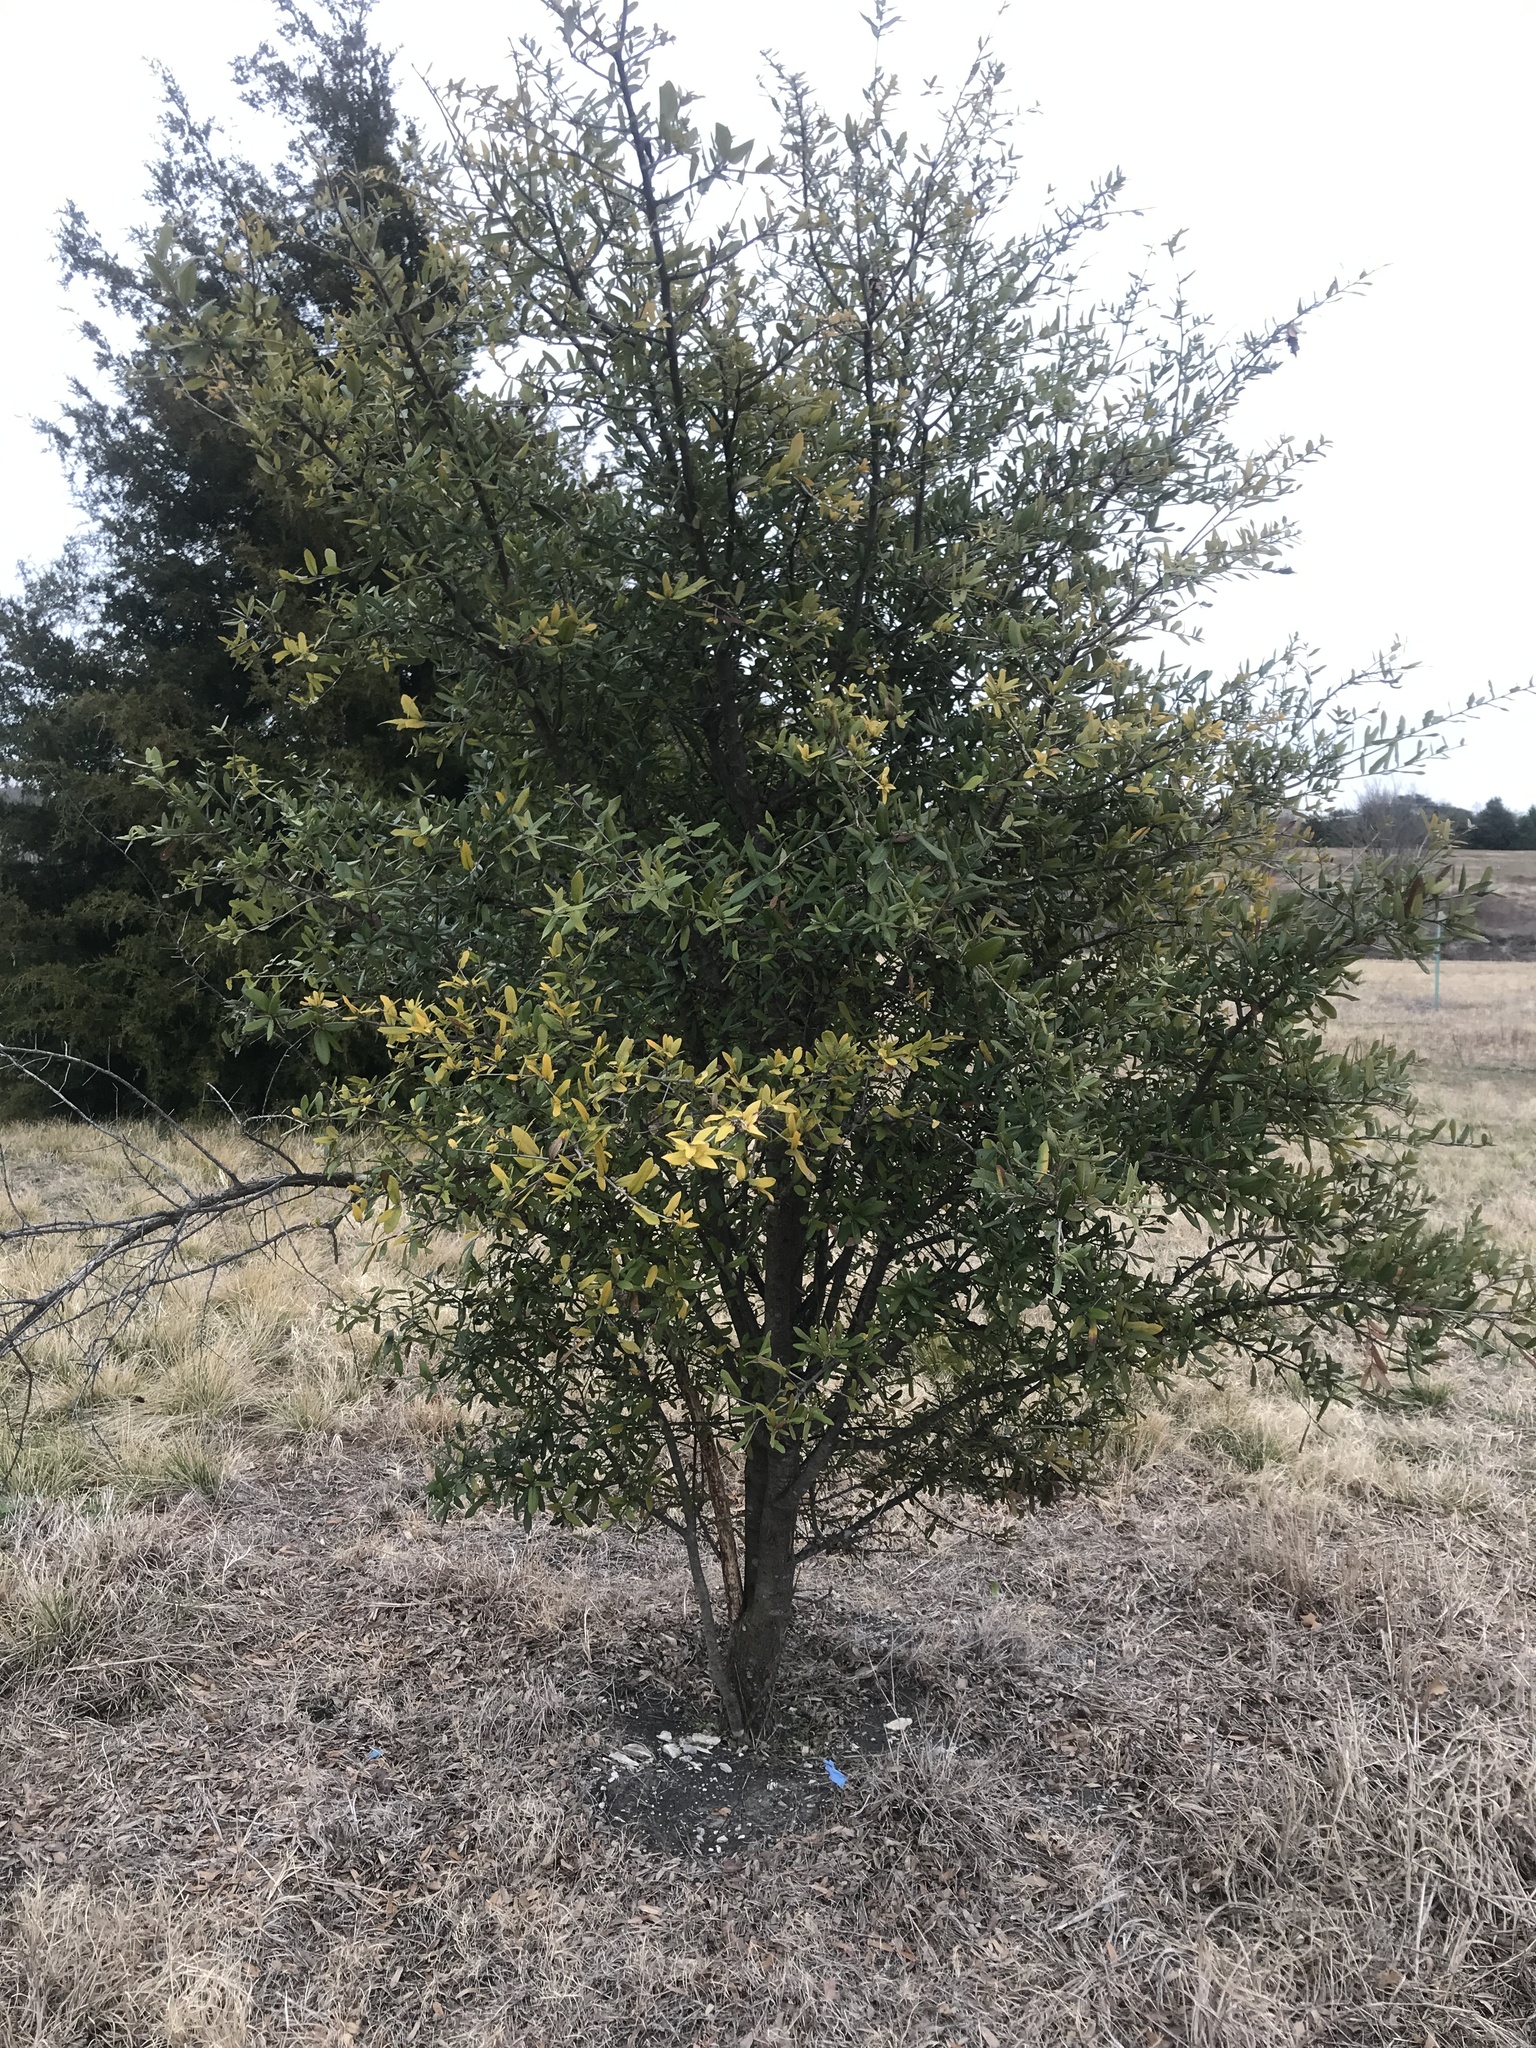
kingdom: Plantae
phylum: Tracheophyta
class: Magnoliopsida
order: Fagales
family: Fagaceae
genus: Quercus
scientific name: Quercus fusiformis
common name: Texas live oak
